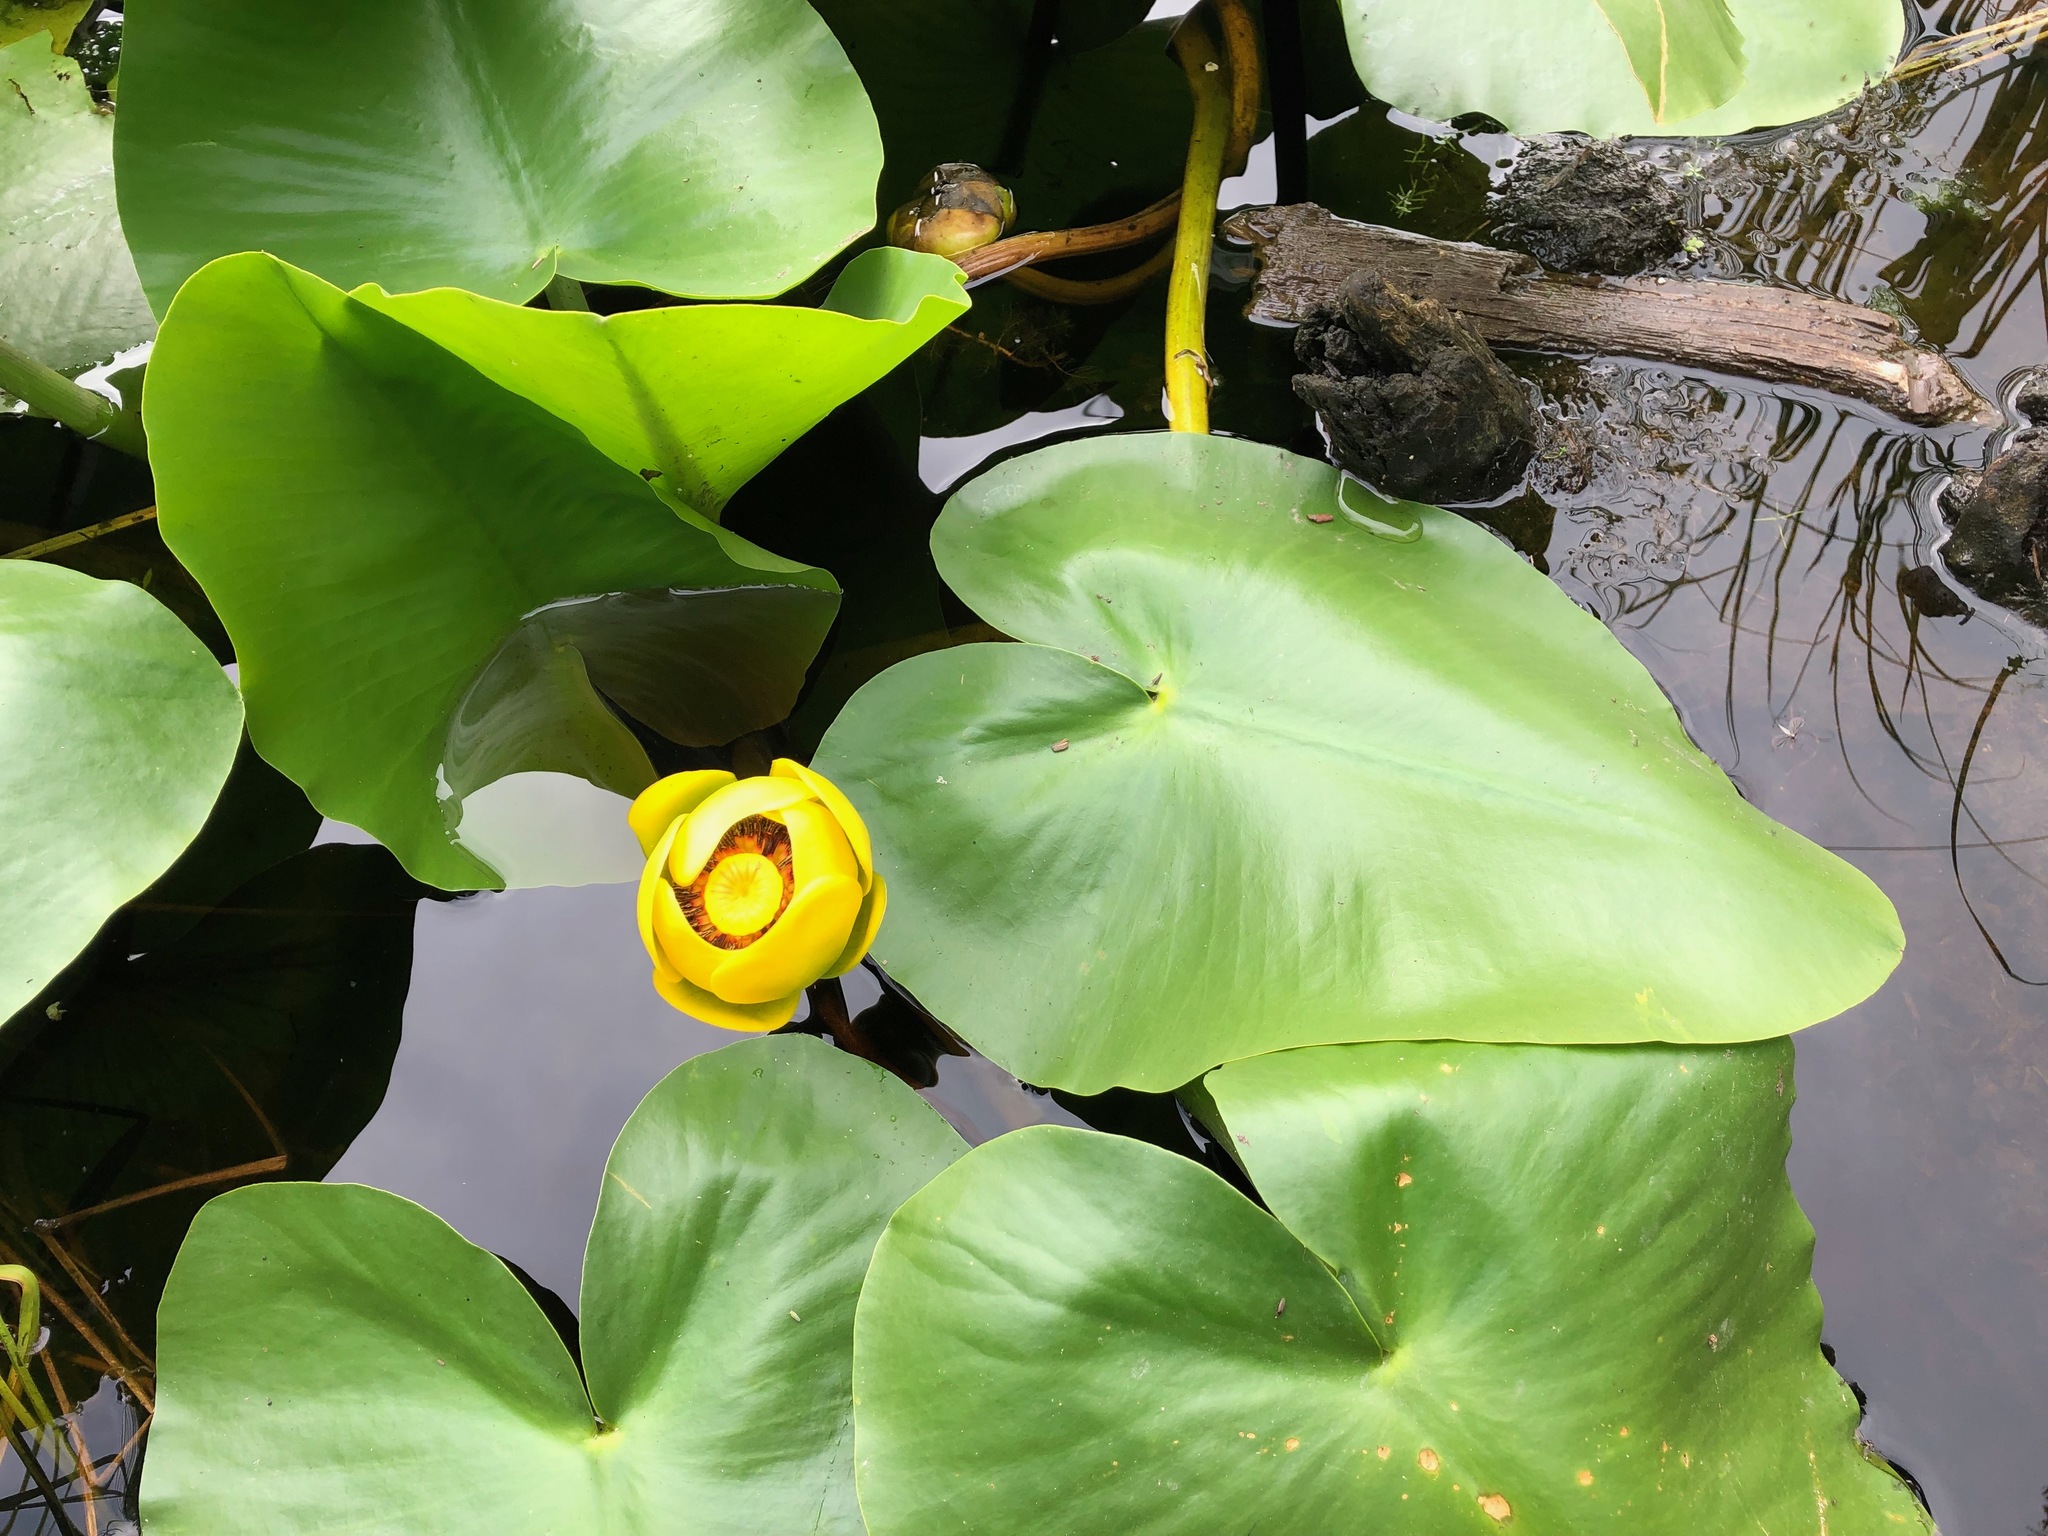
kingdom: Plantae
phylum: Tracheophyta
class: Magnoliopsida
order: Nymphaeales
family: Nymphaeaceae
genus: Nuphar
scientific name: Nuphar polysepala
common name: Rocky mountain cow-lily
